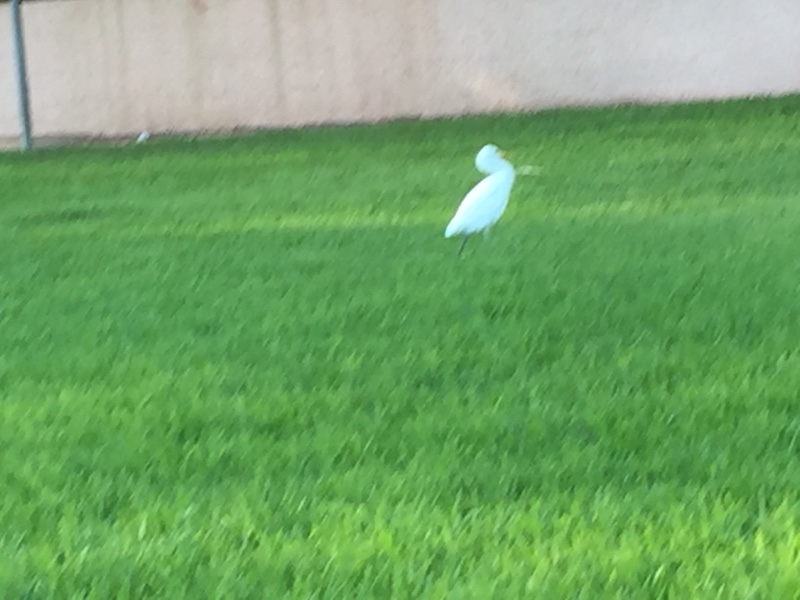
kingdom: Animalia
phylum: Chordata
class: Aves
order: Pelecaniformes
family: Ardeidae
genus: Bubulcus
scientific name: Bubulcus ibis
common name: Cattle egret
